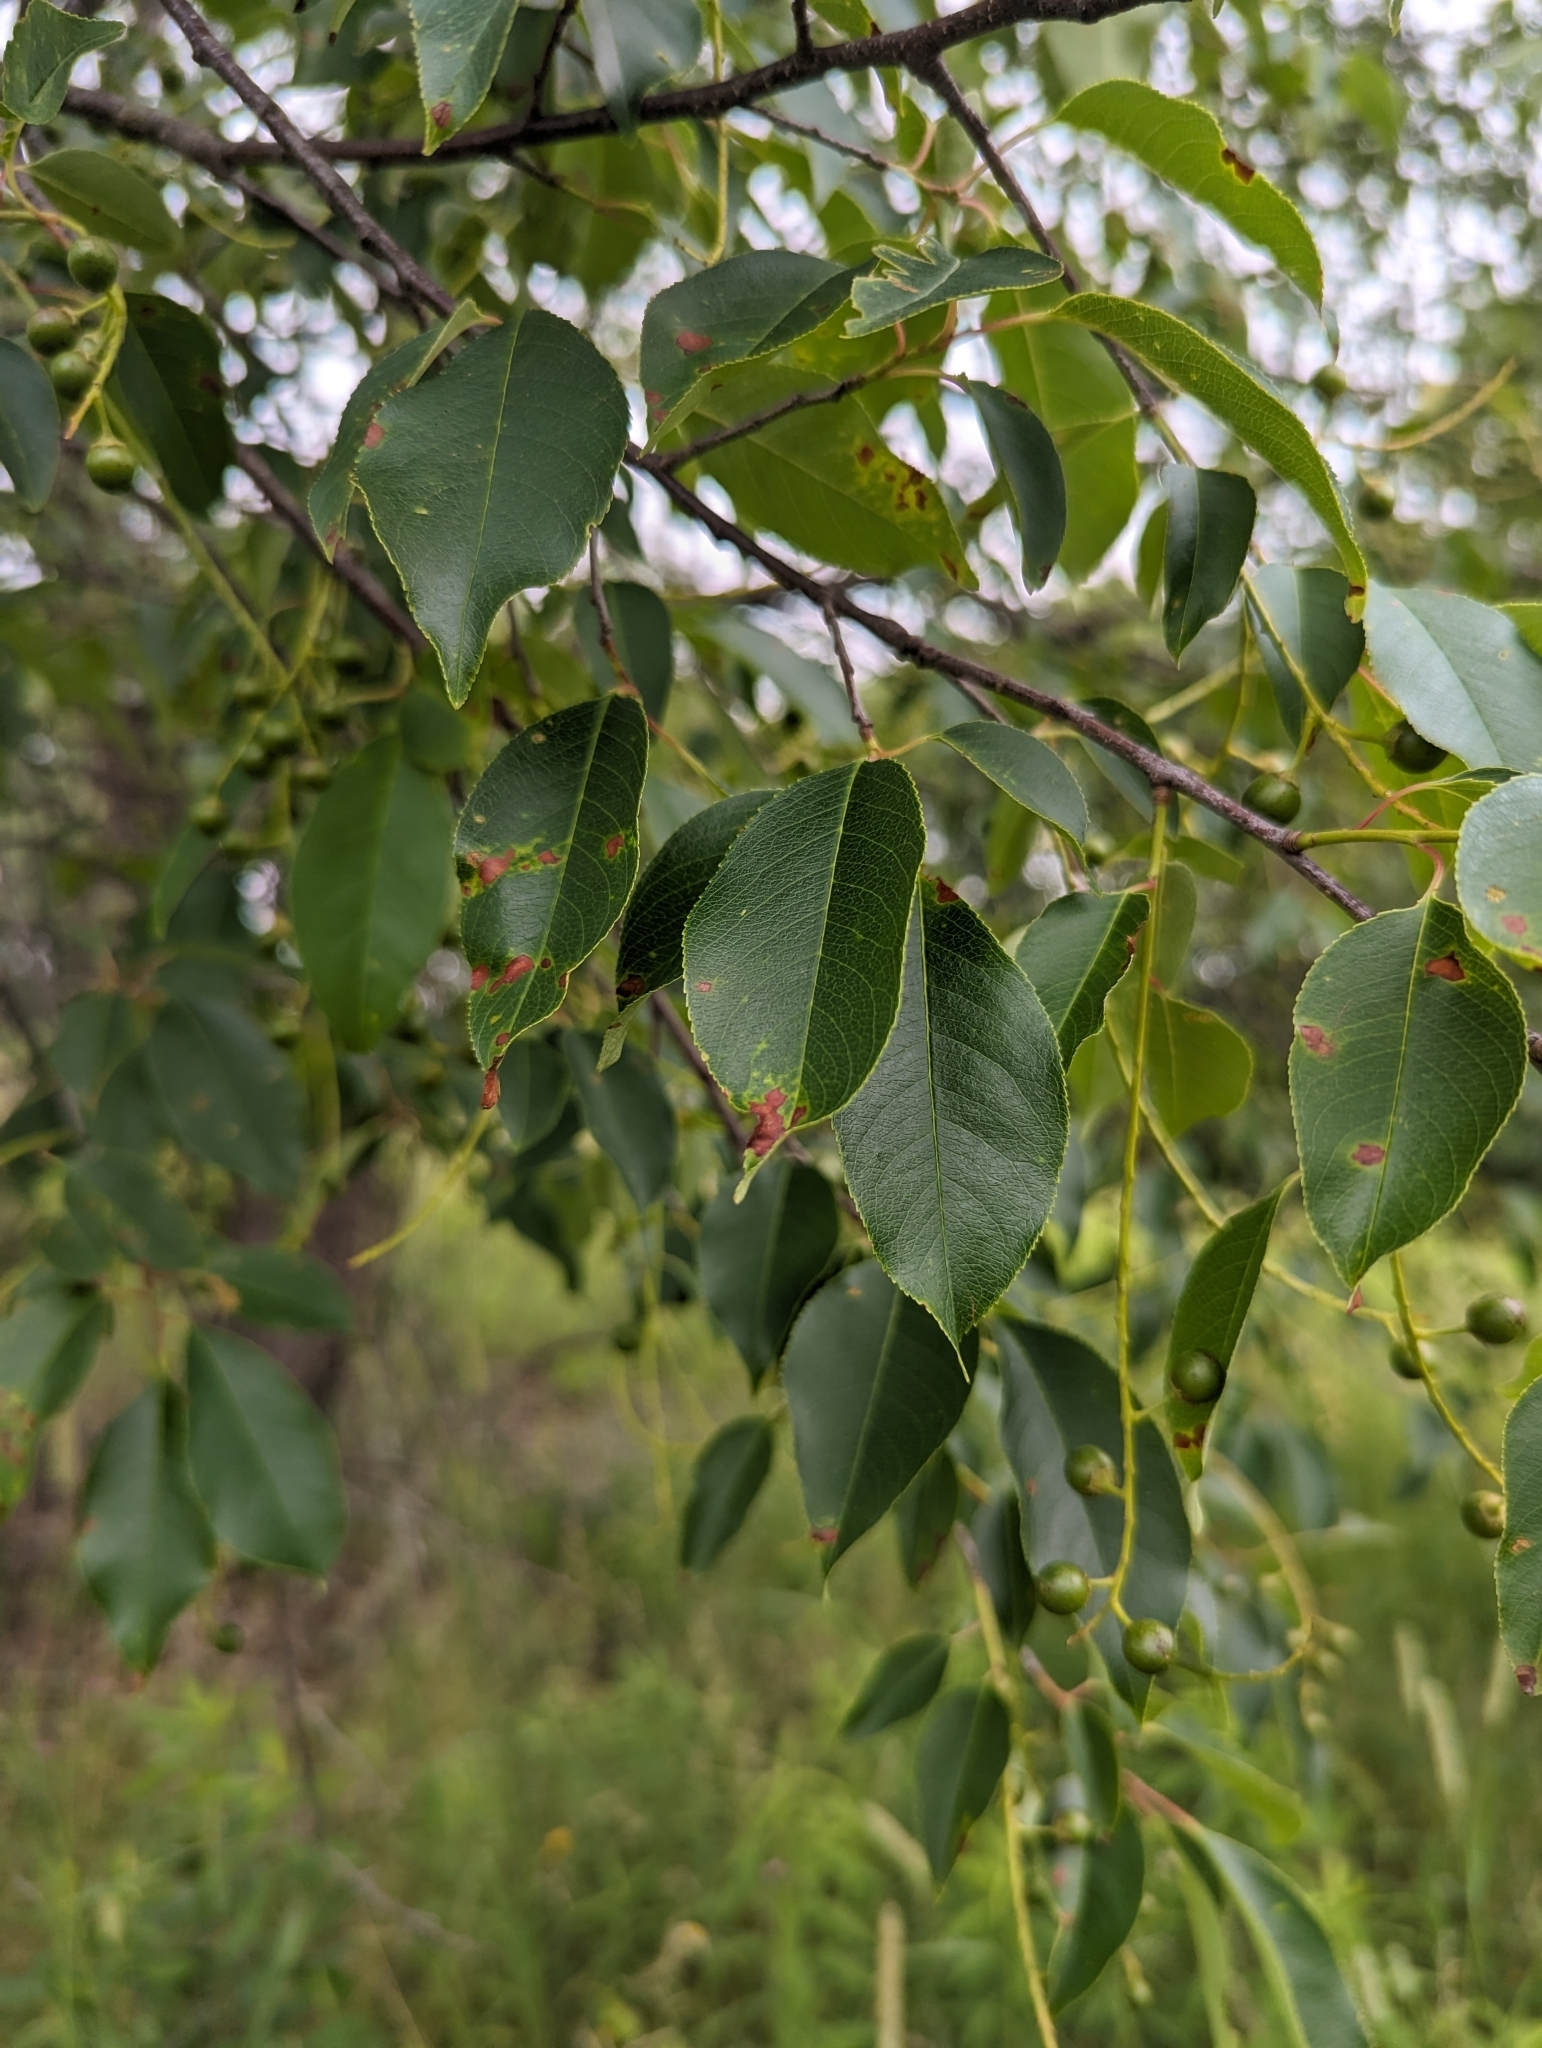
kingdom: Plantae
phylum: Tracheophyta
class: Magnoliopsida
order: Rosales
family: Rosaceae
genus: Prunus
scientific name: Prunus serotina
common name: Black cherry
